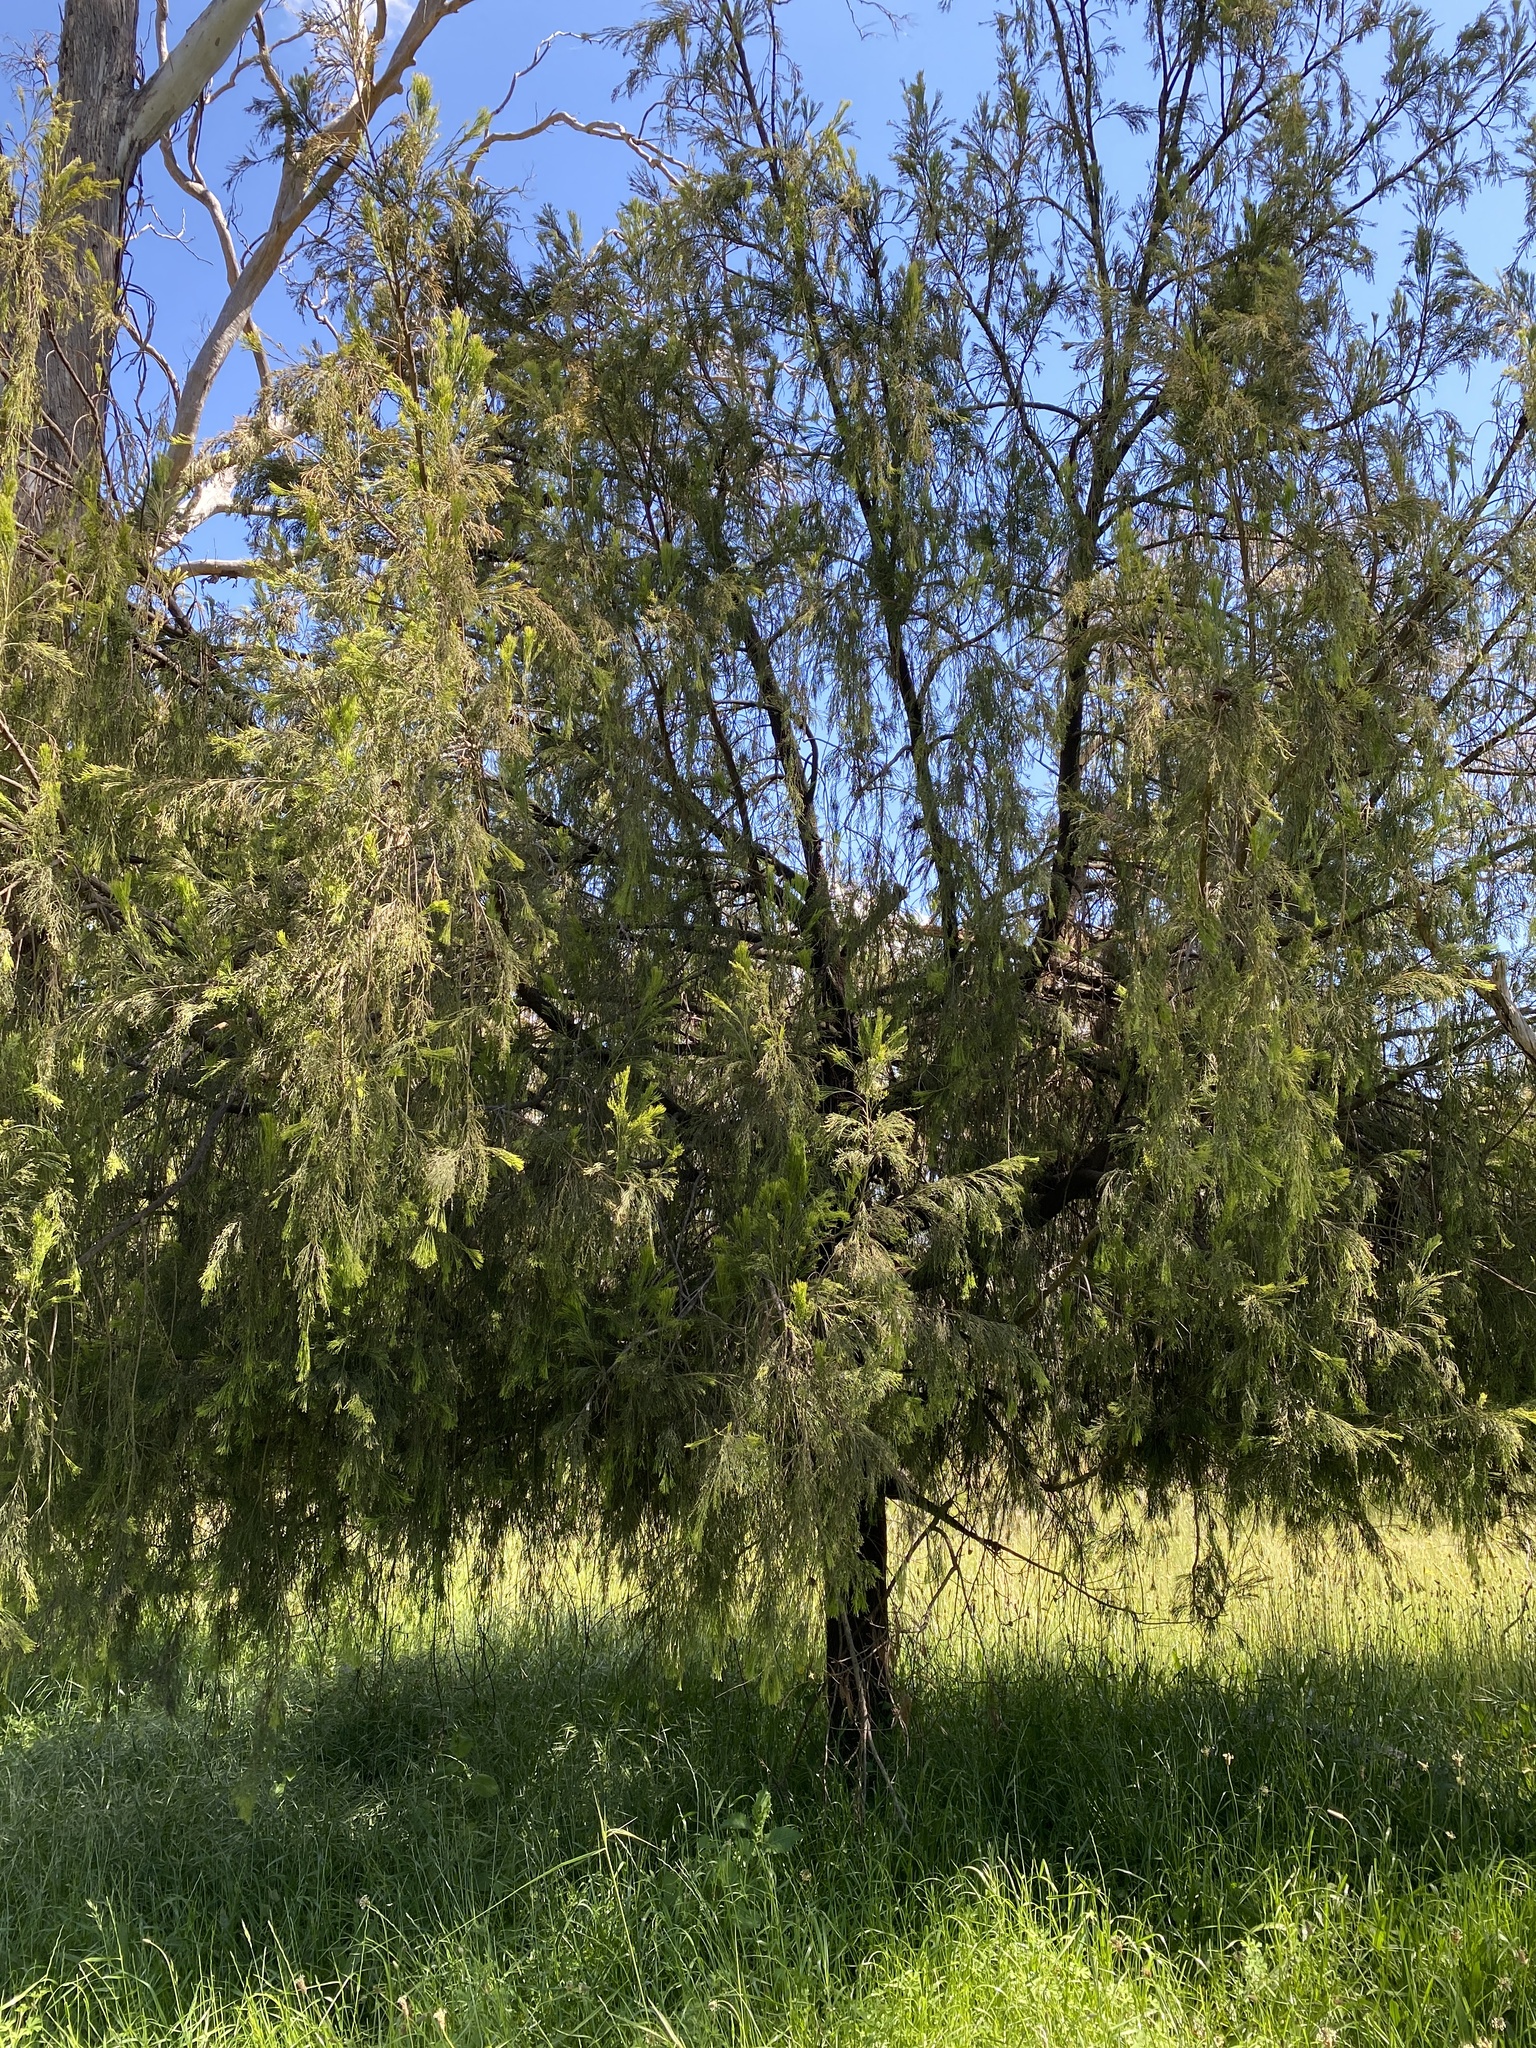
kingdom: Plantae
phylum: Tracheophyta
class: Magnoliopsida
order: Santalales
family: Santalaceae
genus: Exocarpos
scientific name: Exocarpos cupressiformis
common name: Cherry ballart
